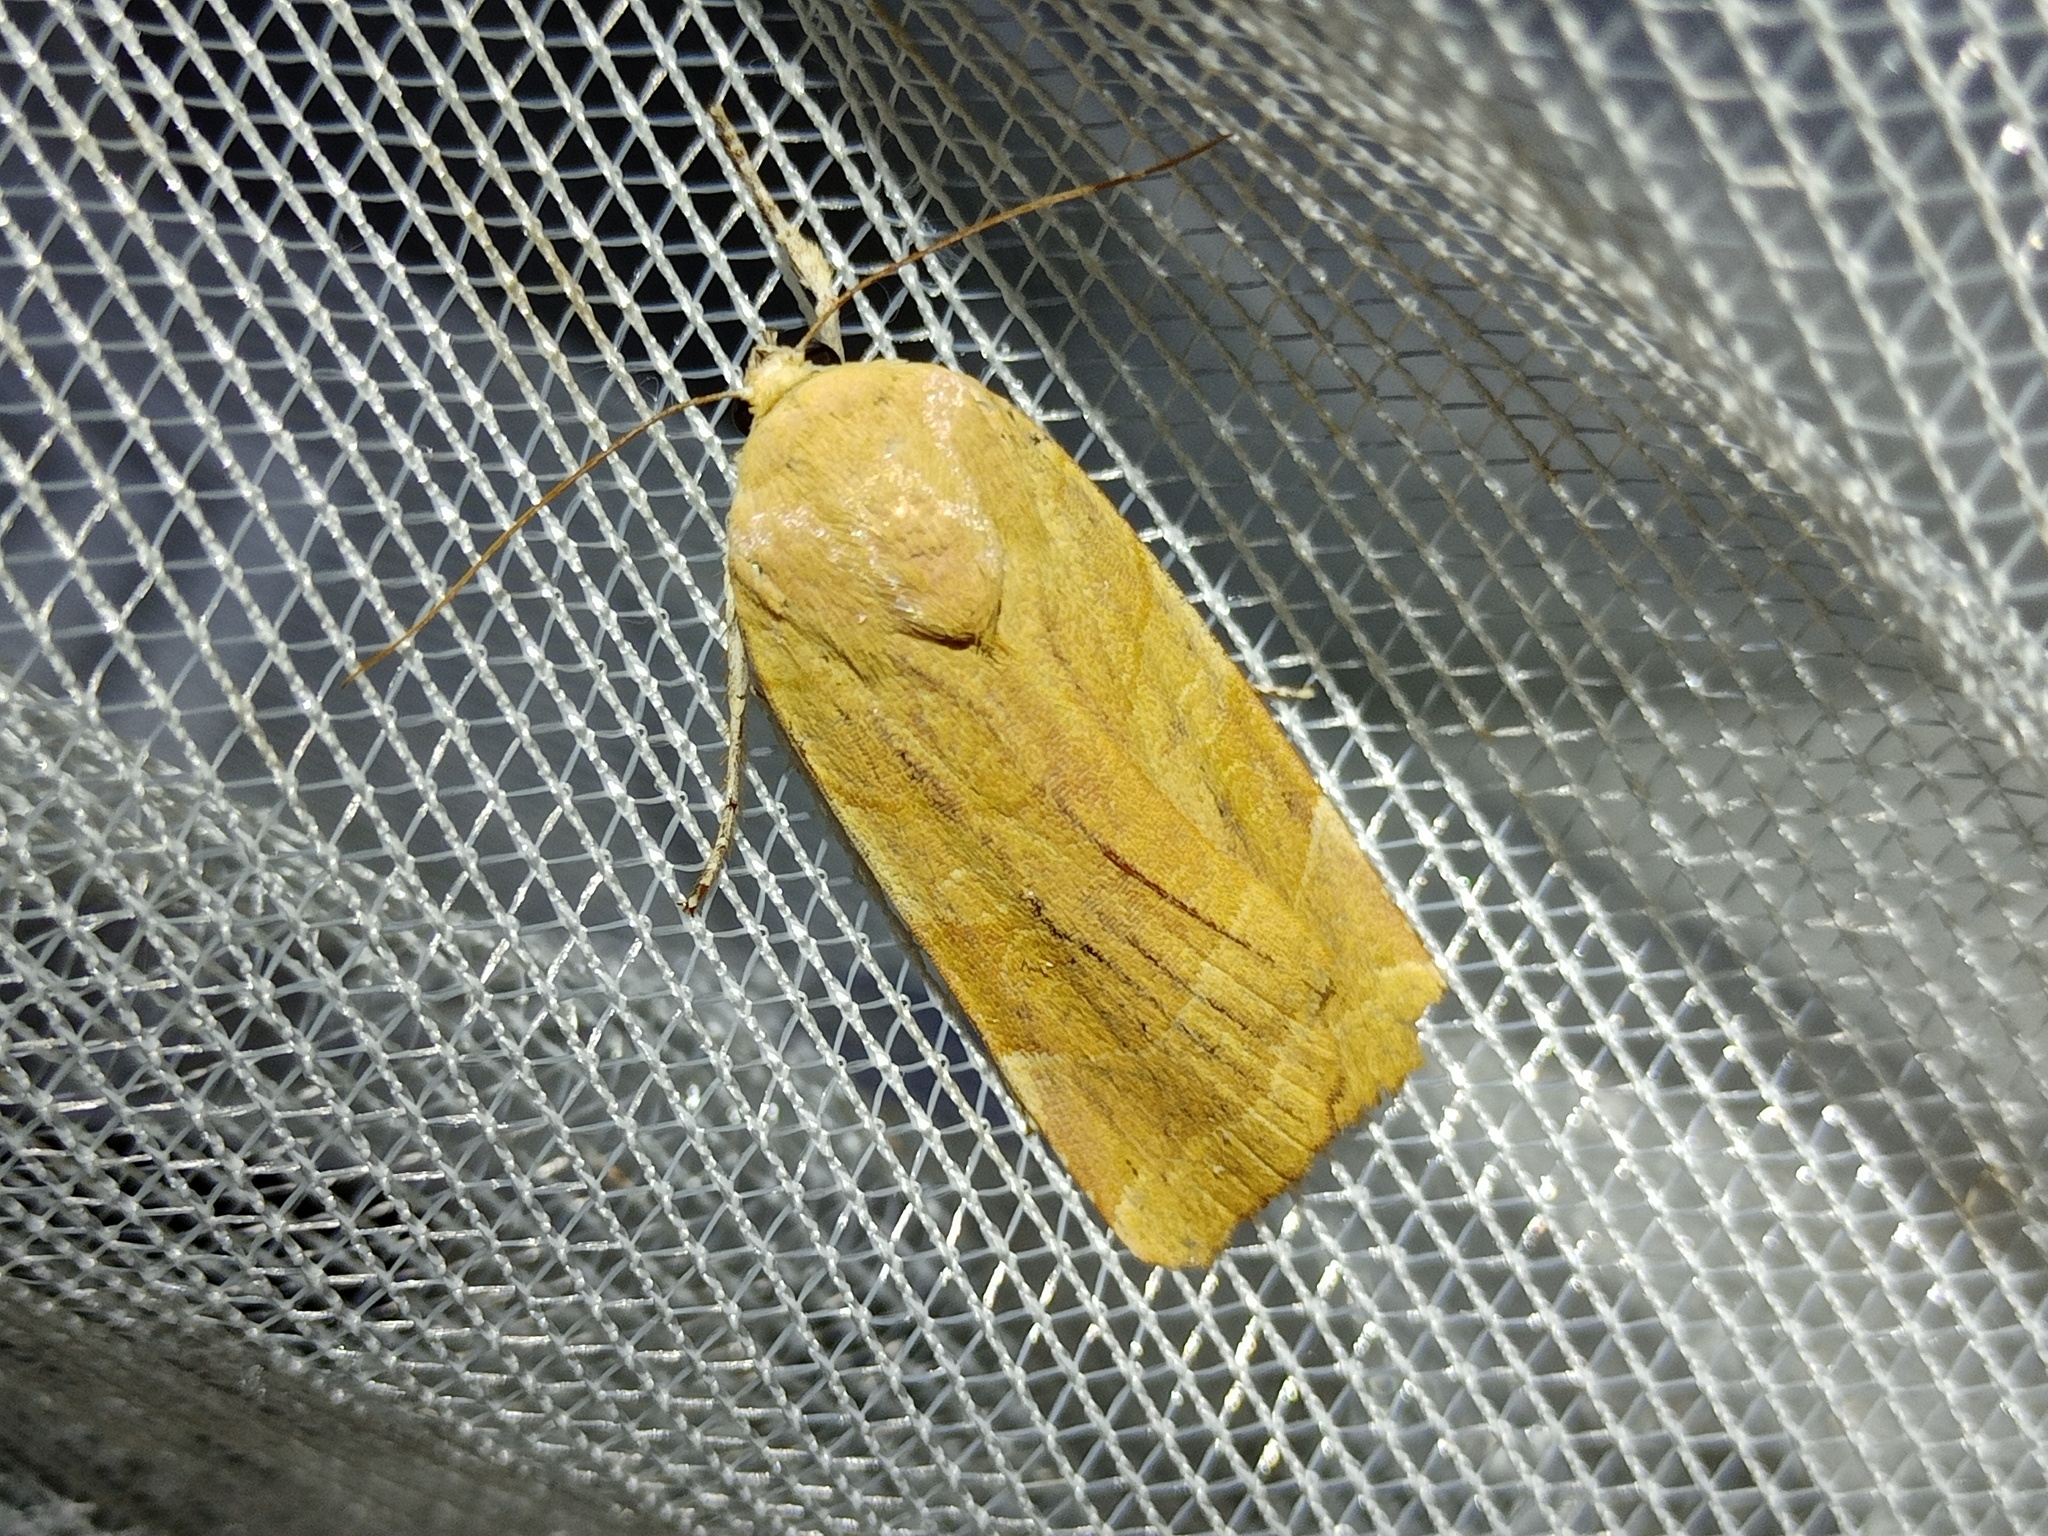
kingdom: Animalia
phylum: Arthropoda
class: Insecta
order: Lepidoptera
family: Noctuidae
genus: Noctua
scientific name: Noctua fimbriata
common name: Broad-bordered yellow underwing
